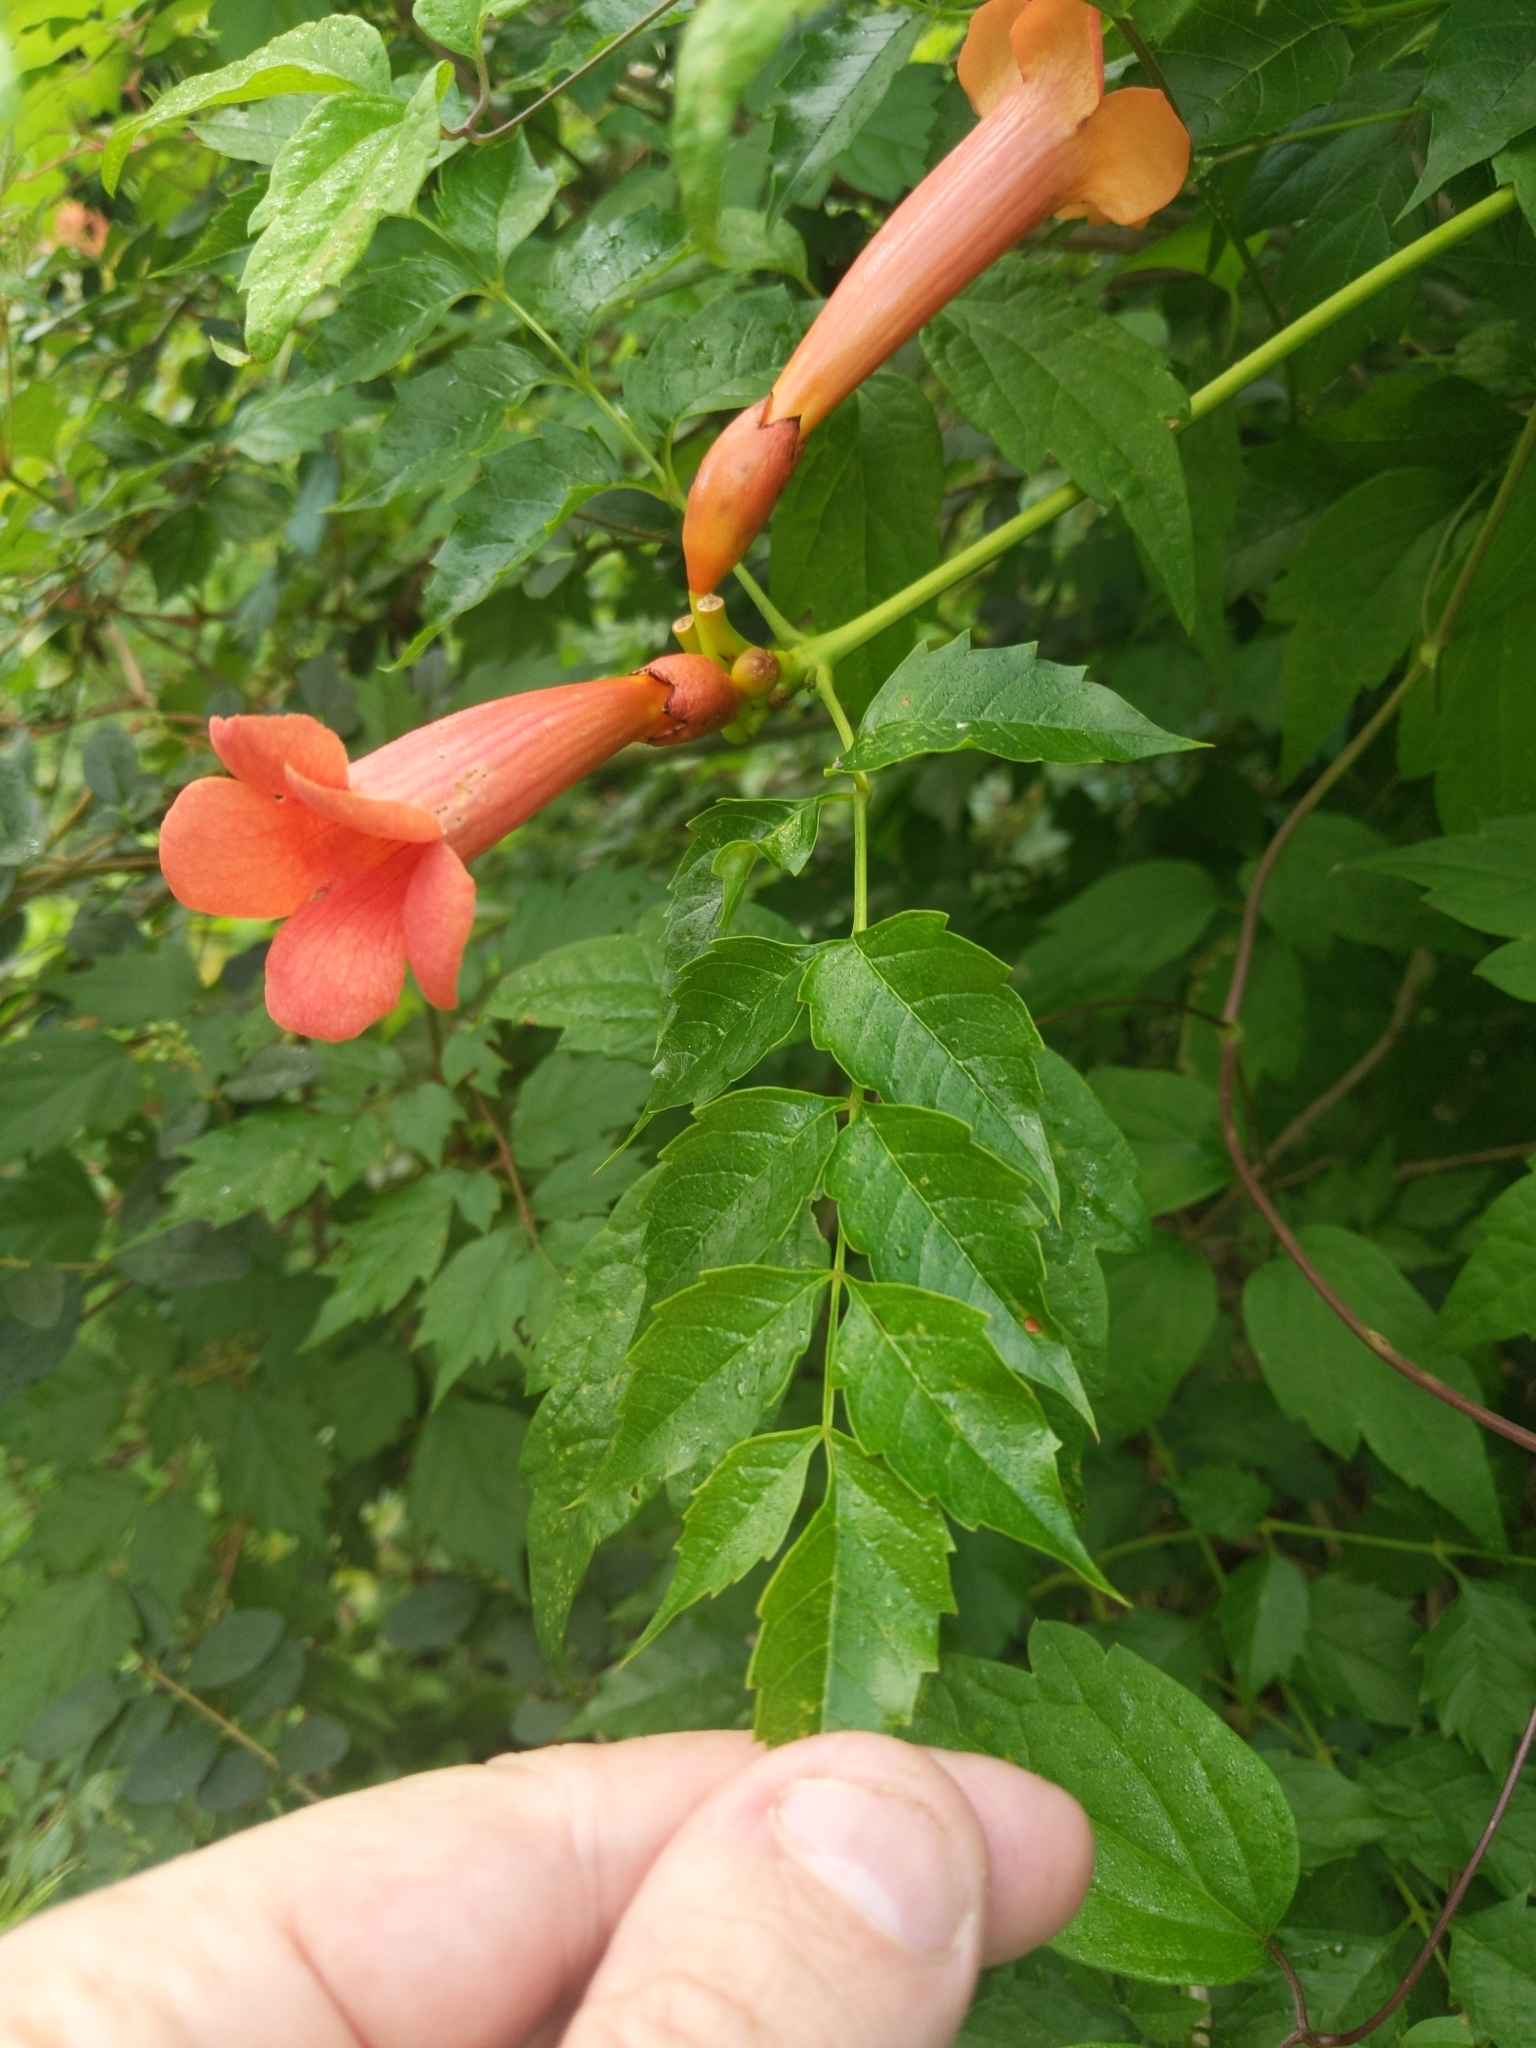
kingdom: Plantae
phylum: Tracheophyta
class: Magnoliopsida
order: Lamiales
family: Bignoniaceae
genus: Campsis
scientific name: Campsis radicans
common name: Trumpet-creeper
